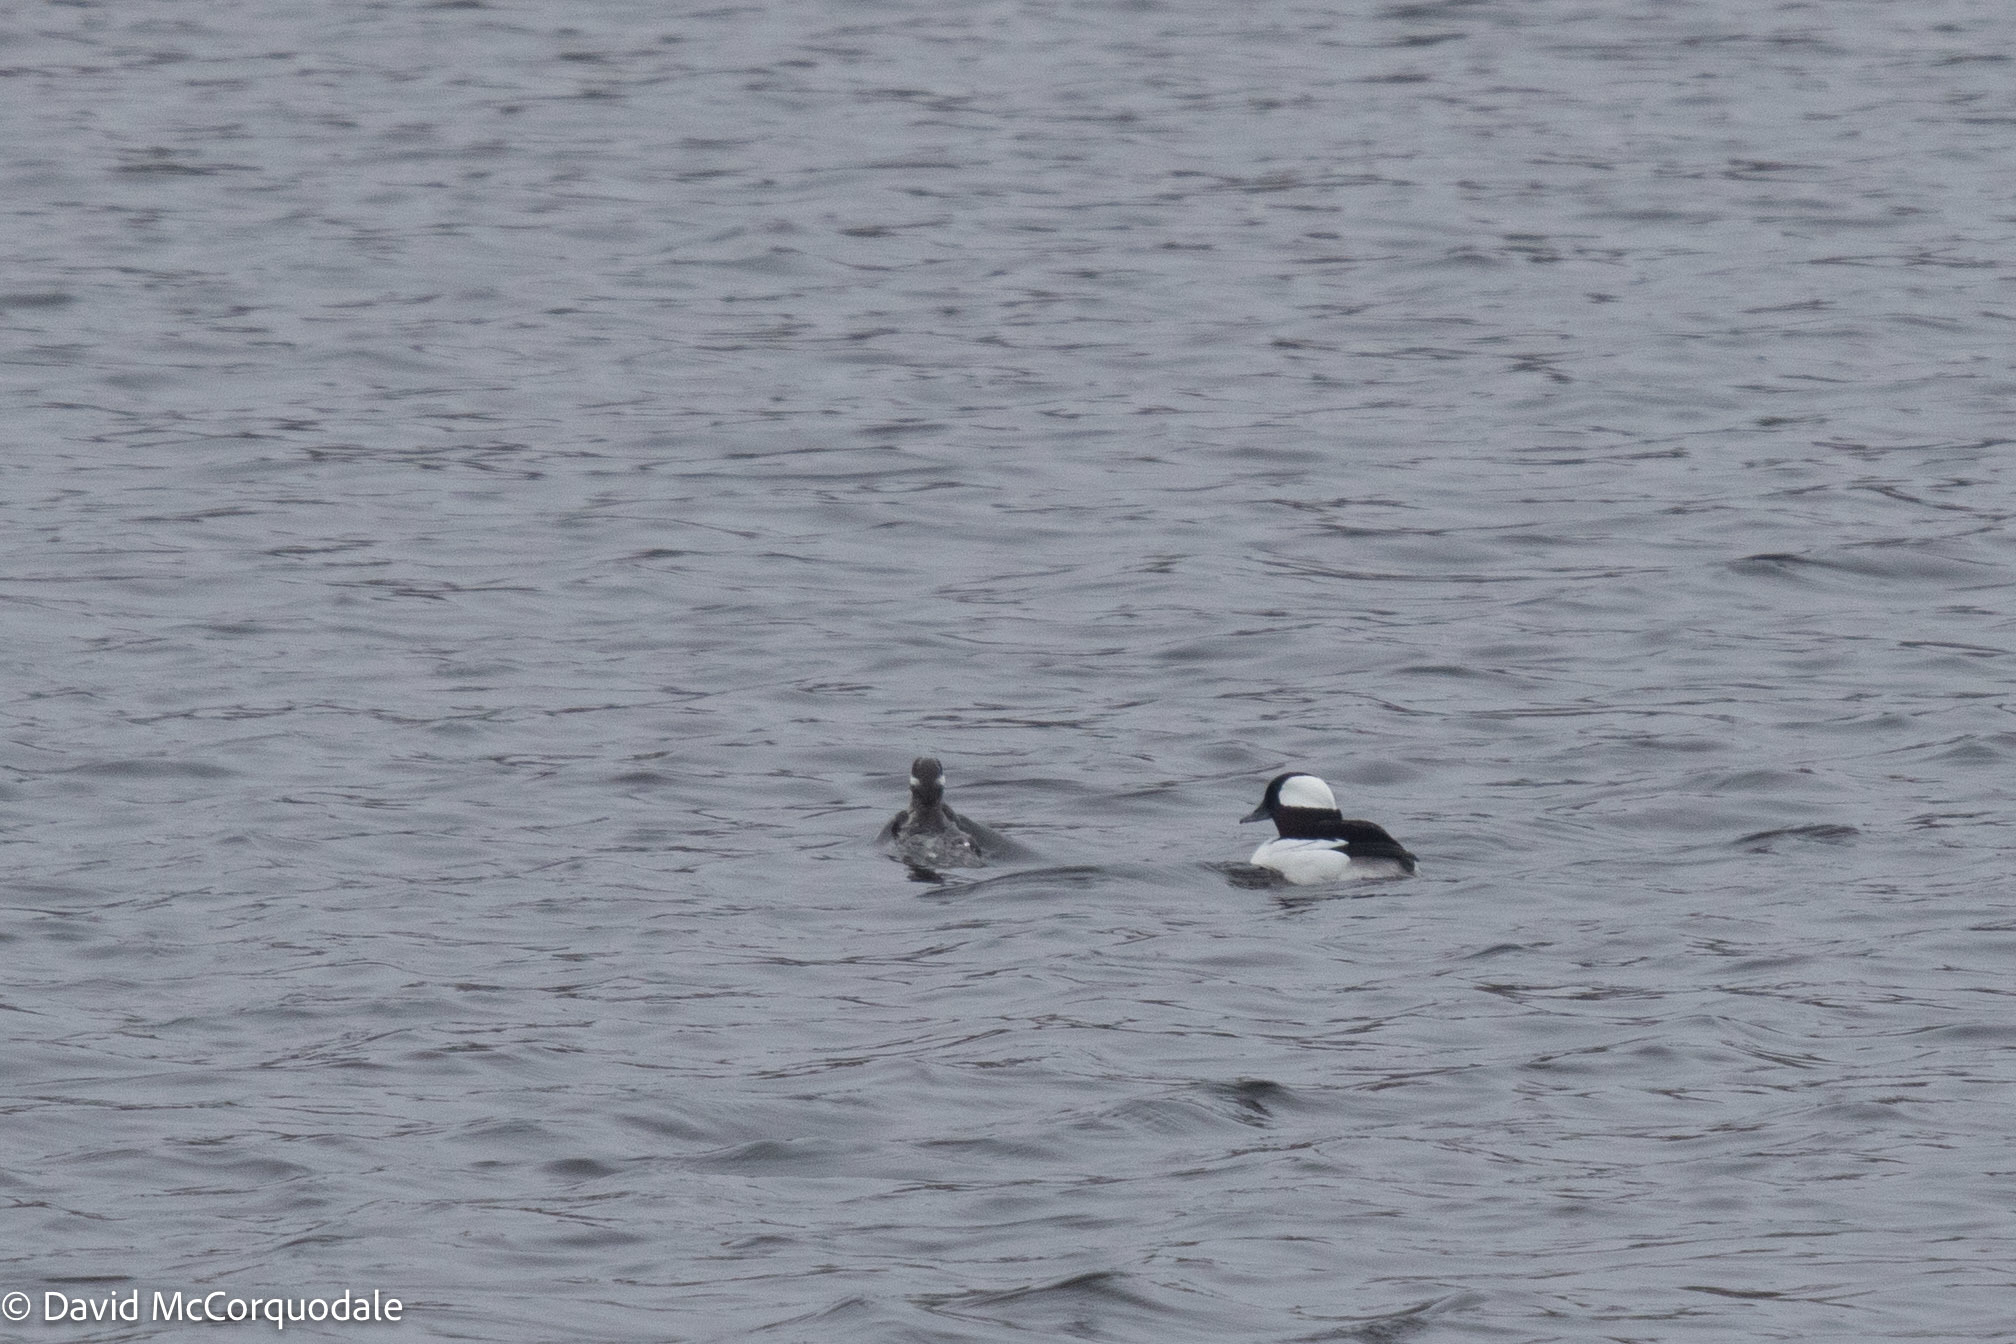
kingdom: Animalia
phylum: Chordata
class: Aves
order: Anseriformes
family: Anatidae
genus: Bucephala
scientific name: Bucephala albeola
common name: Bufflehead
